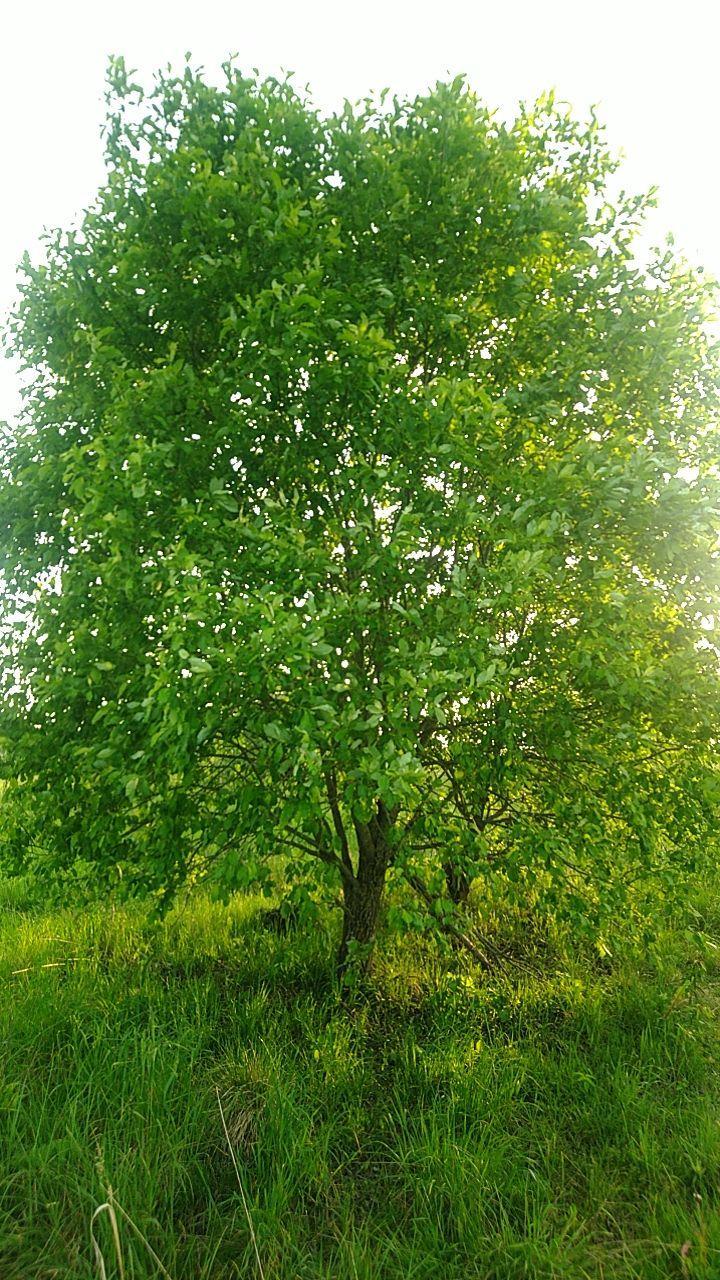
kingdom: Plantae
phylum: Tracheophyta
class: Magnoliopsida
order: Malpighiales
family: Salicaceae
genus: Salix
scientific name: Salix caprea
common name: Goat willow
